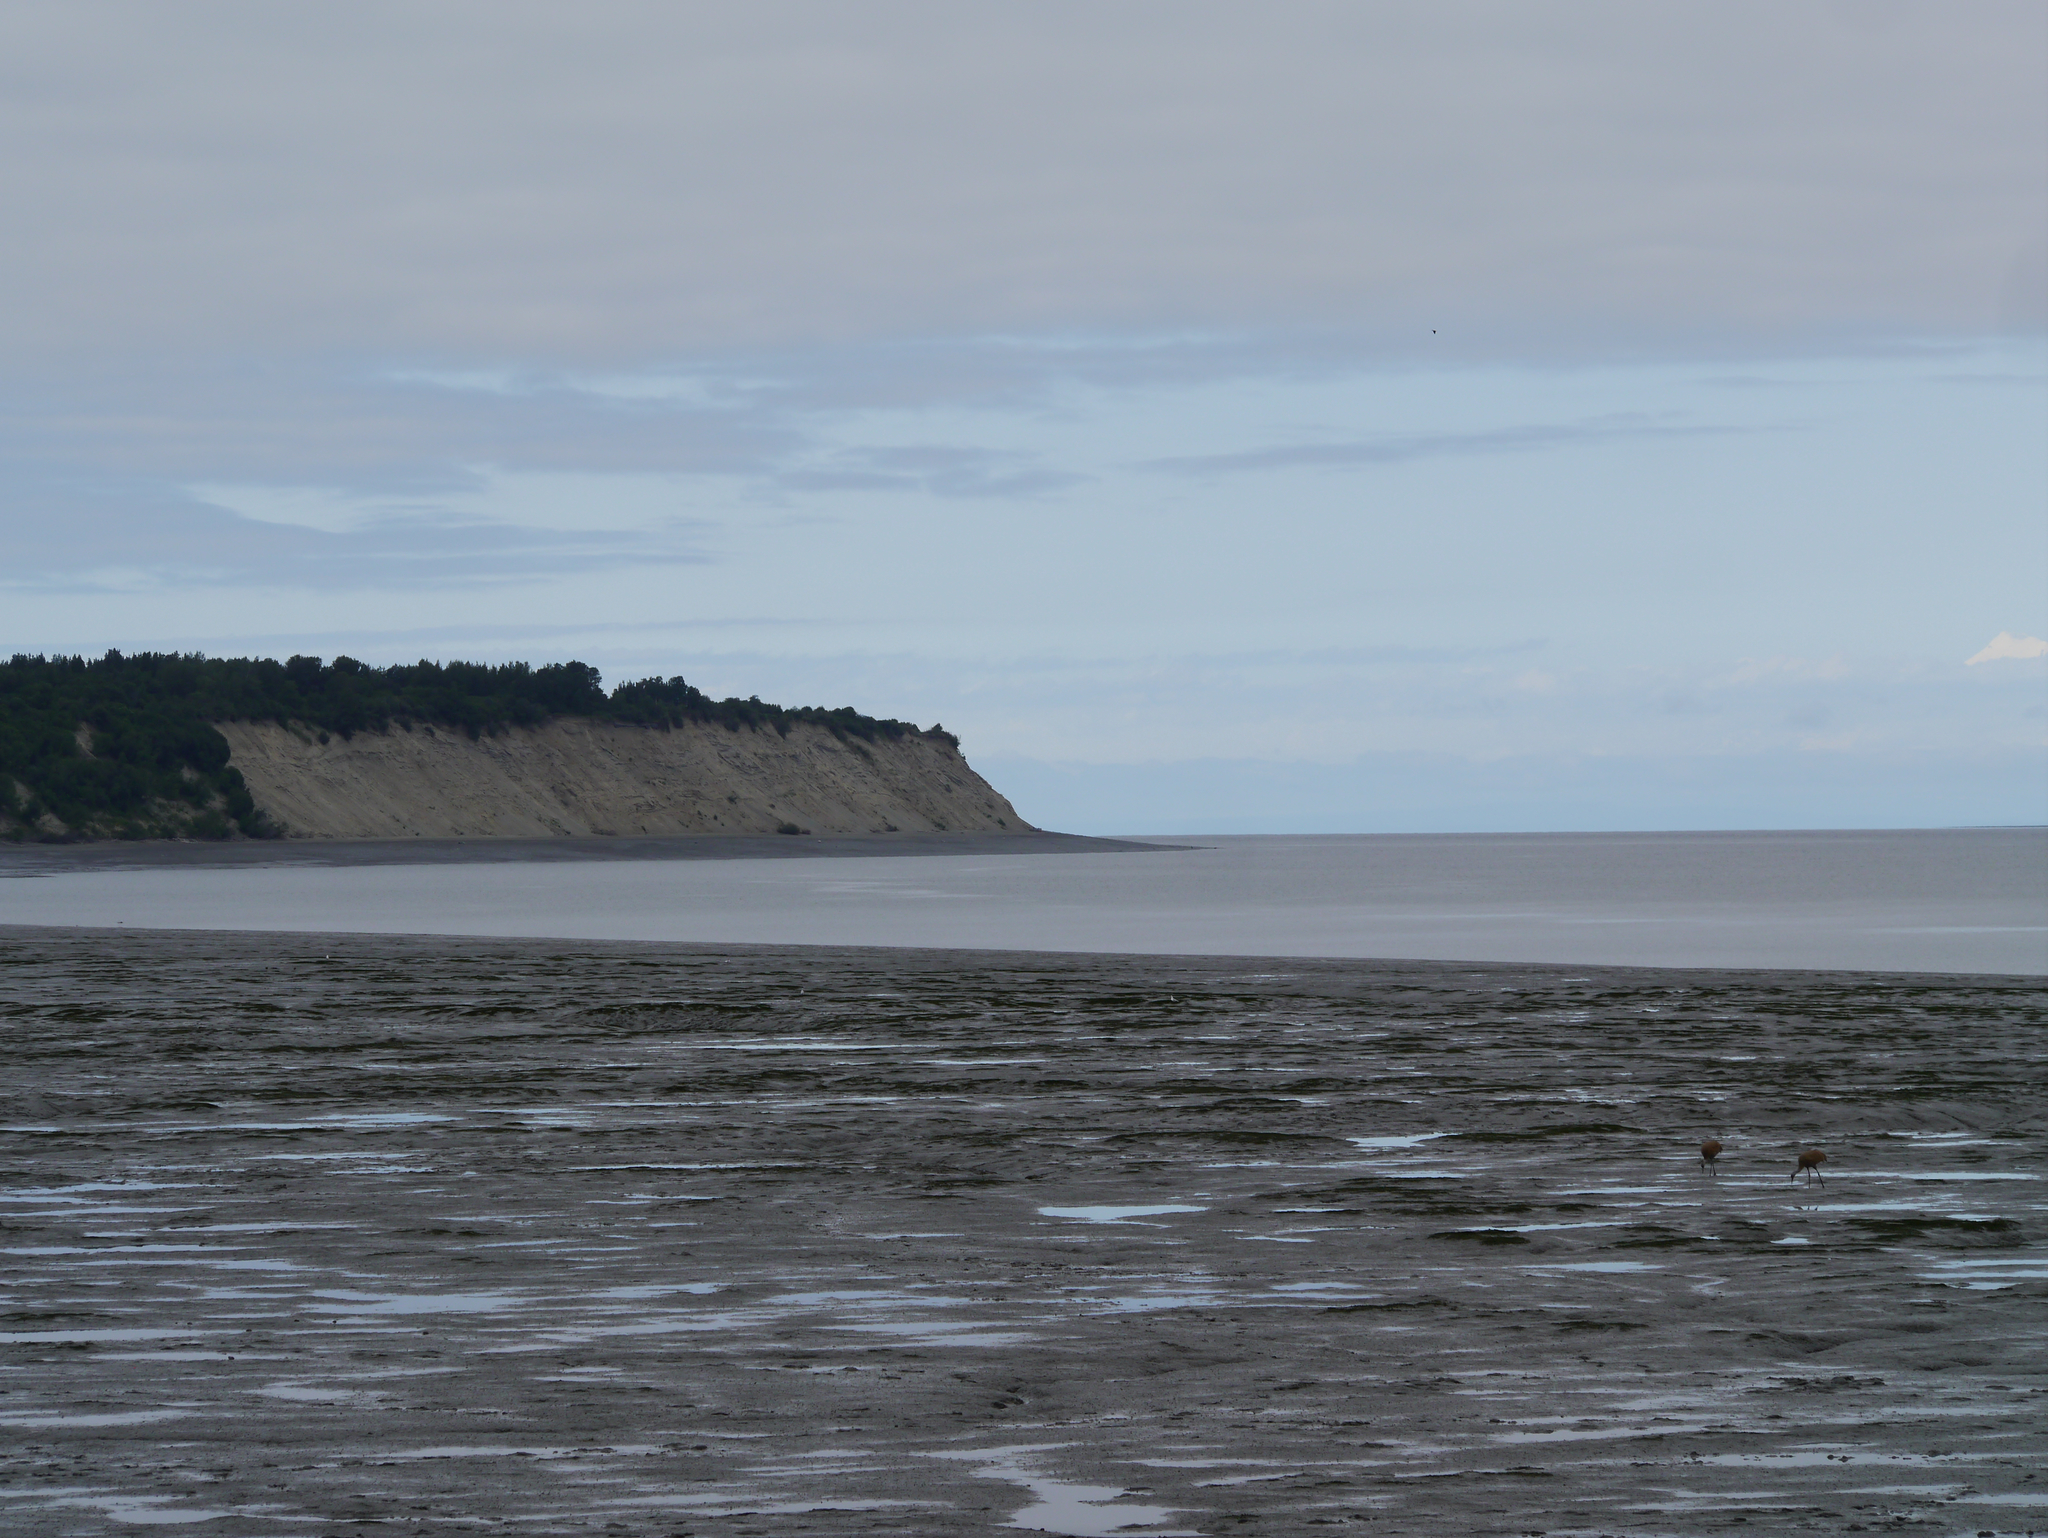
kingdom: Animalia
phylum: Chordata
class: Aves
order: Gruiformes
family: Gruidae
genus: Grus
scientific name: Grus canadensis
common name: Sandhill crane
